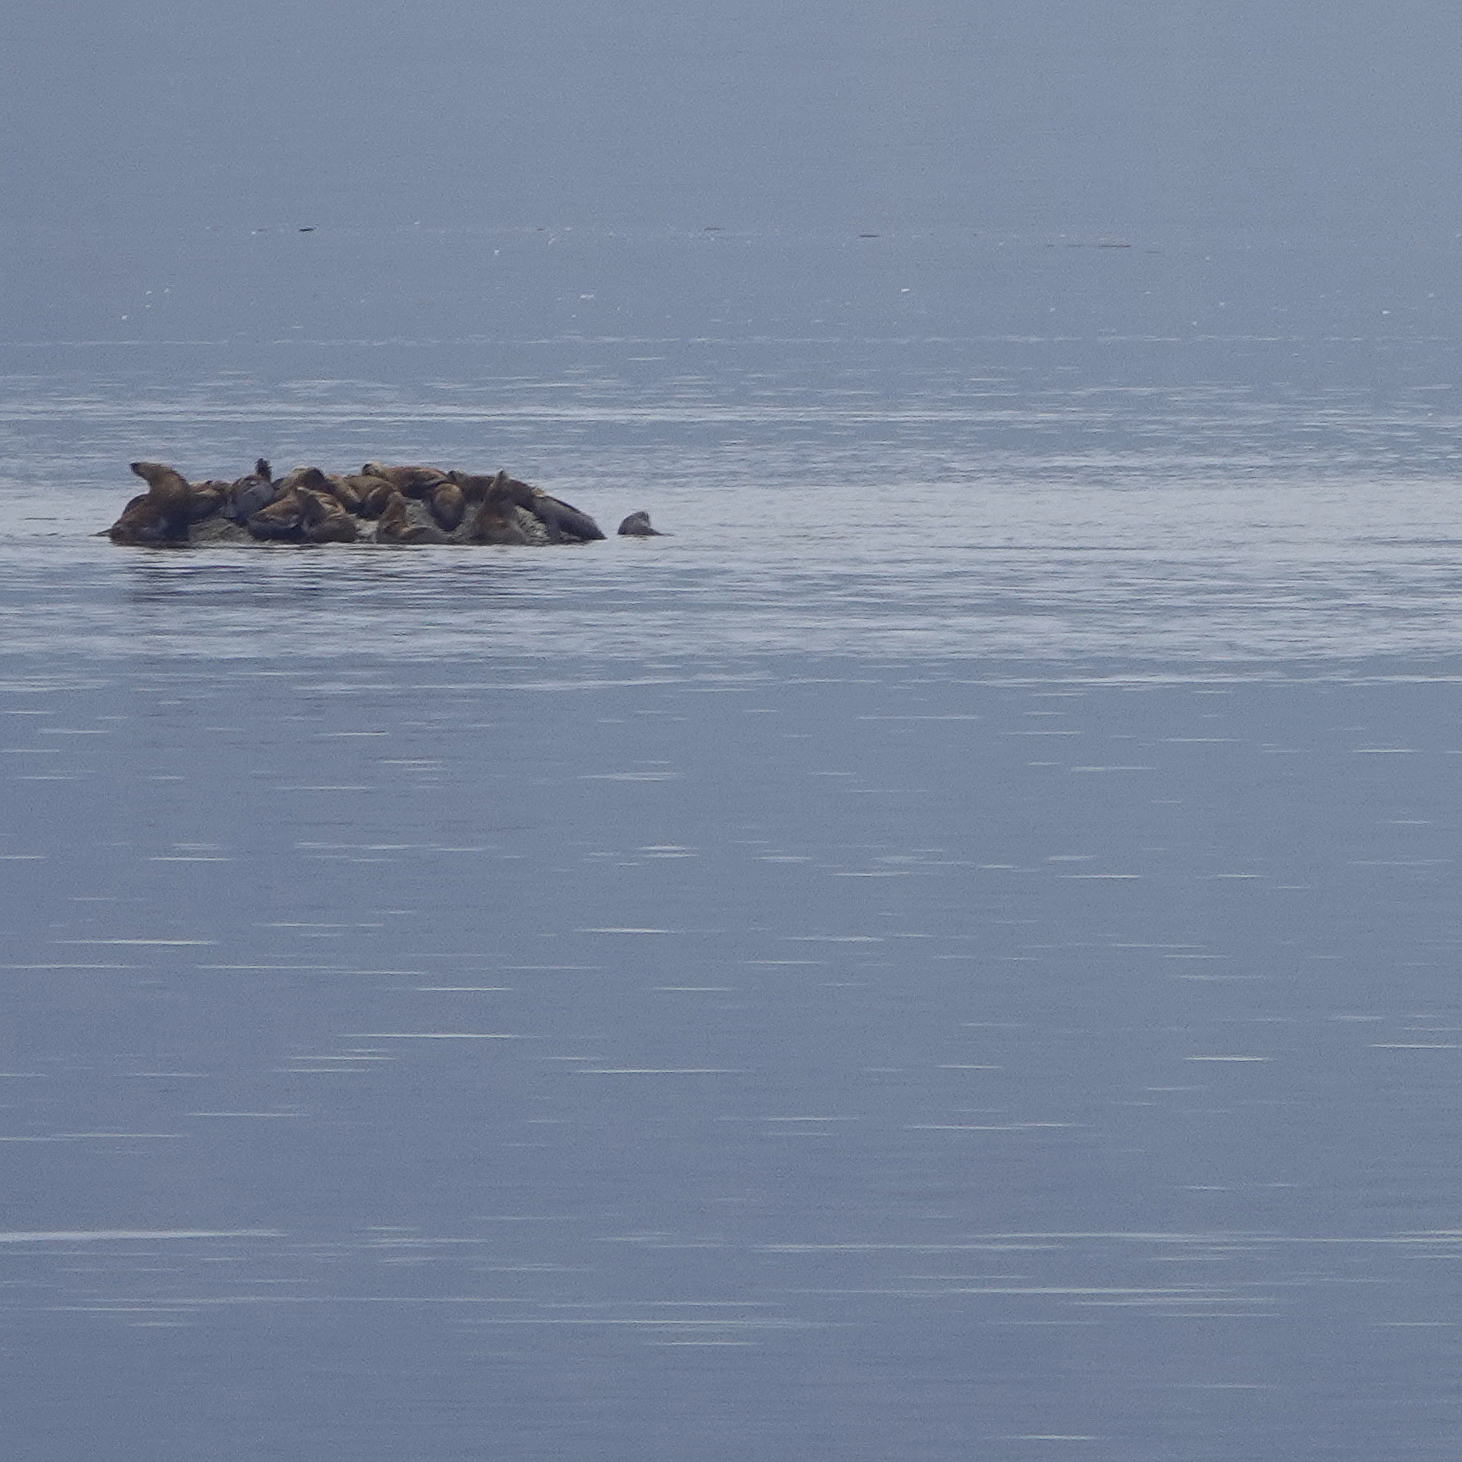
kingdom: Animalia
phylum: Chordata
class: Mammalia
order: Carnivora
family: Otariidae
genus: Eumetopias
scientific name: Eumetopias jubatus
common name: Steller sea lion
